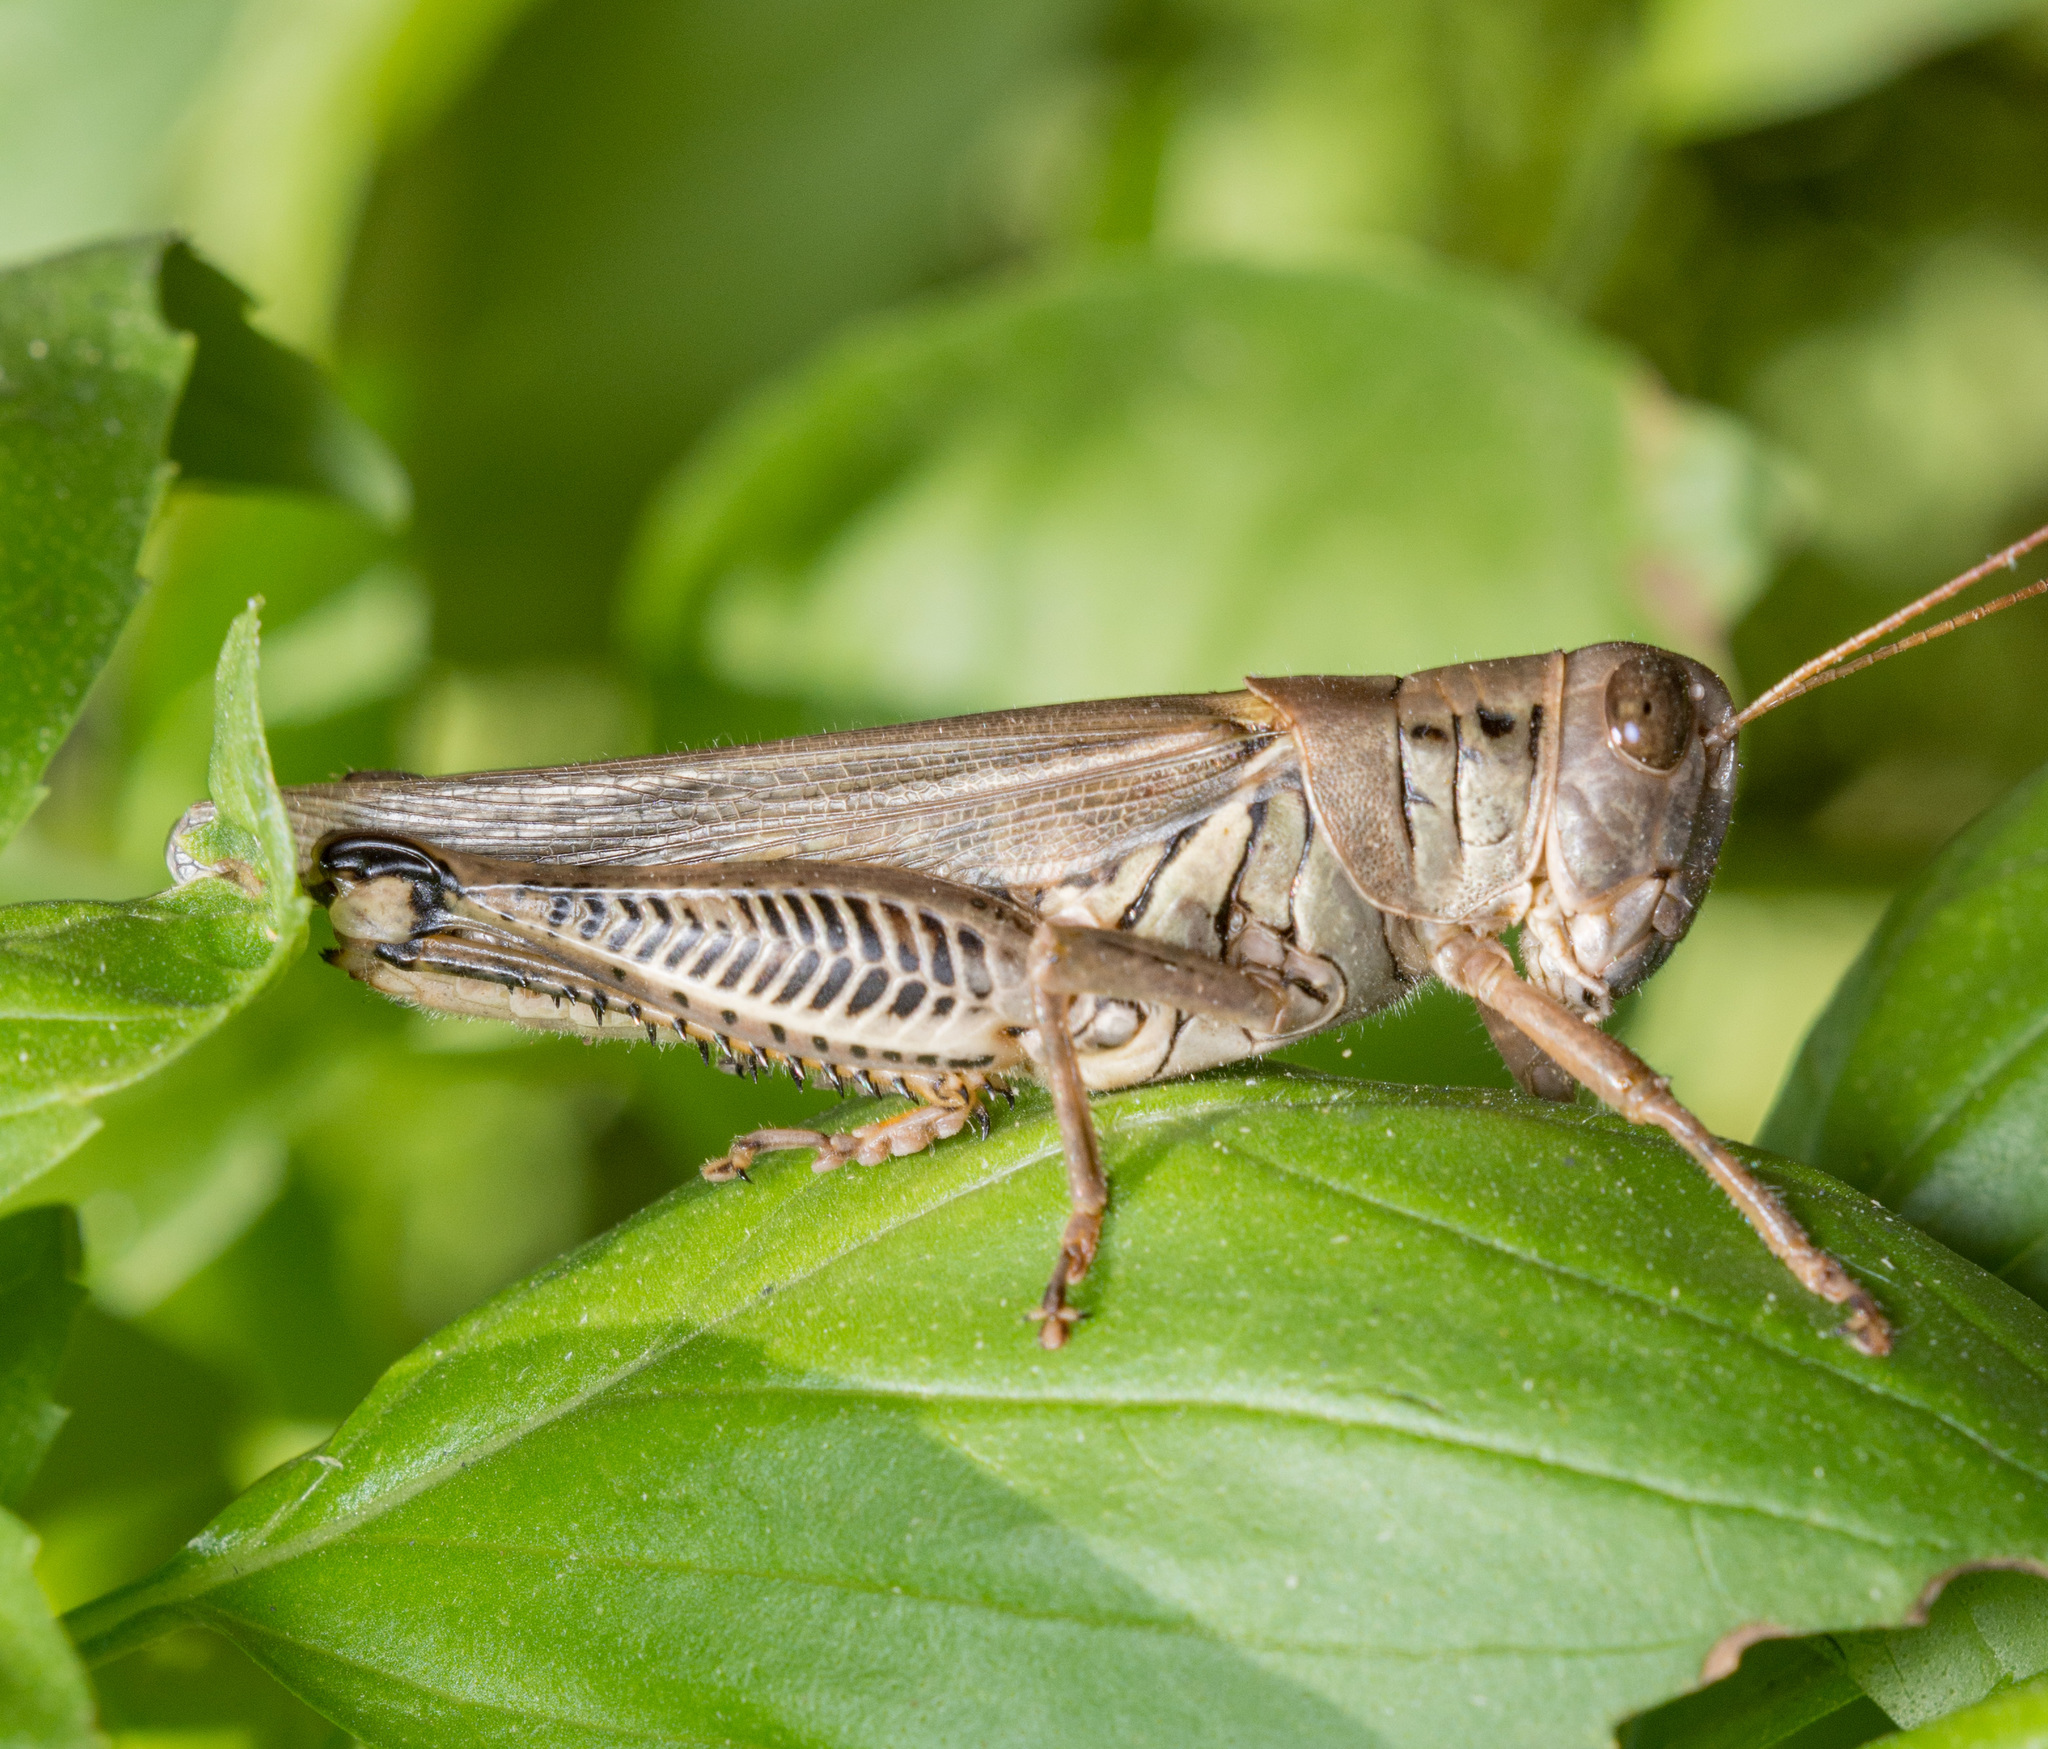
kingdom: Animalia
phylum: Arthropoda
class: Insecta
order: Orthoptera
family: Acrididae
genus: Melanoplus
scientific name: Melanoplus differentialis
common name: Differential grasshopper
